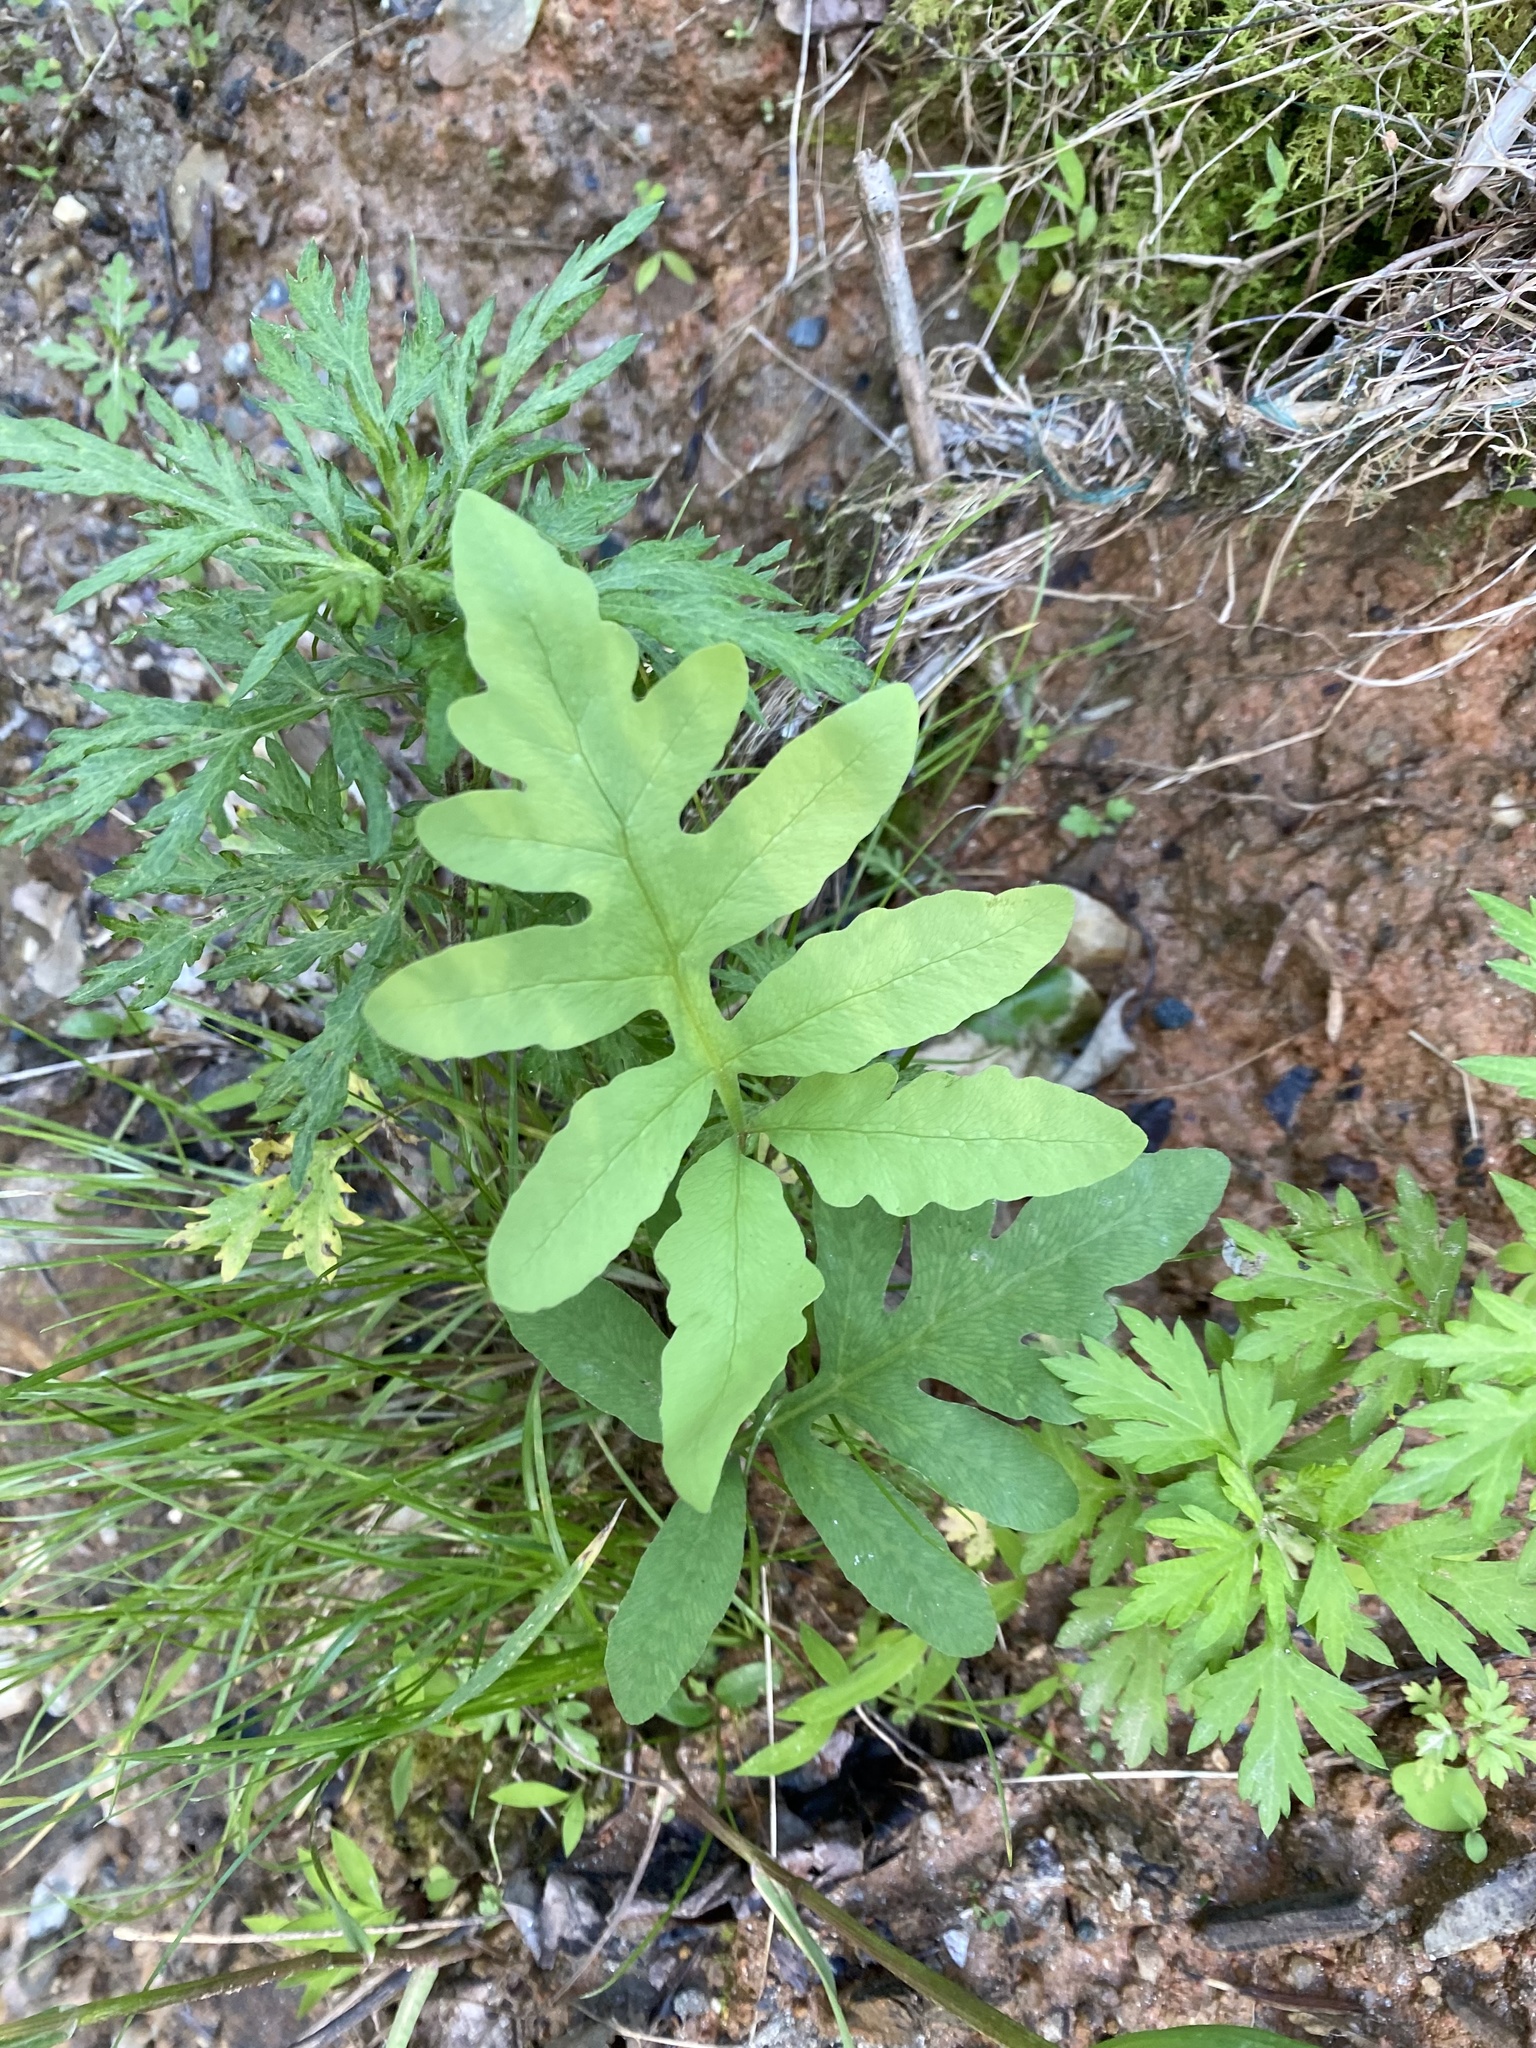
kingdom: Plantae
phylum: Tracheophyta
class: Polypodiopsida
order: Polypodiales
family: Onocleaceae
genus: Onoclea
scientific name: Onoclea sensibilis
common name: Sensitive fern
